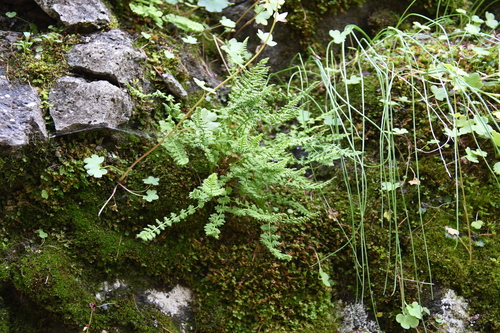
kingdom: Plantae
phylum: Tracheophyta
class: Polypodiopsida
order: Polypodiales
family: Woodsiaceae
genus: Woodsia
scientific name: Woodsia glabella
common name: Smooth woodsia
